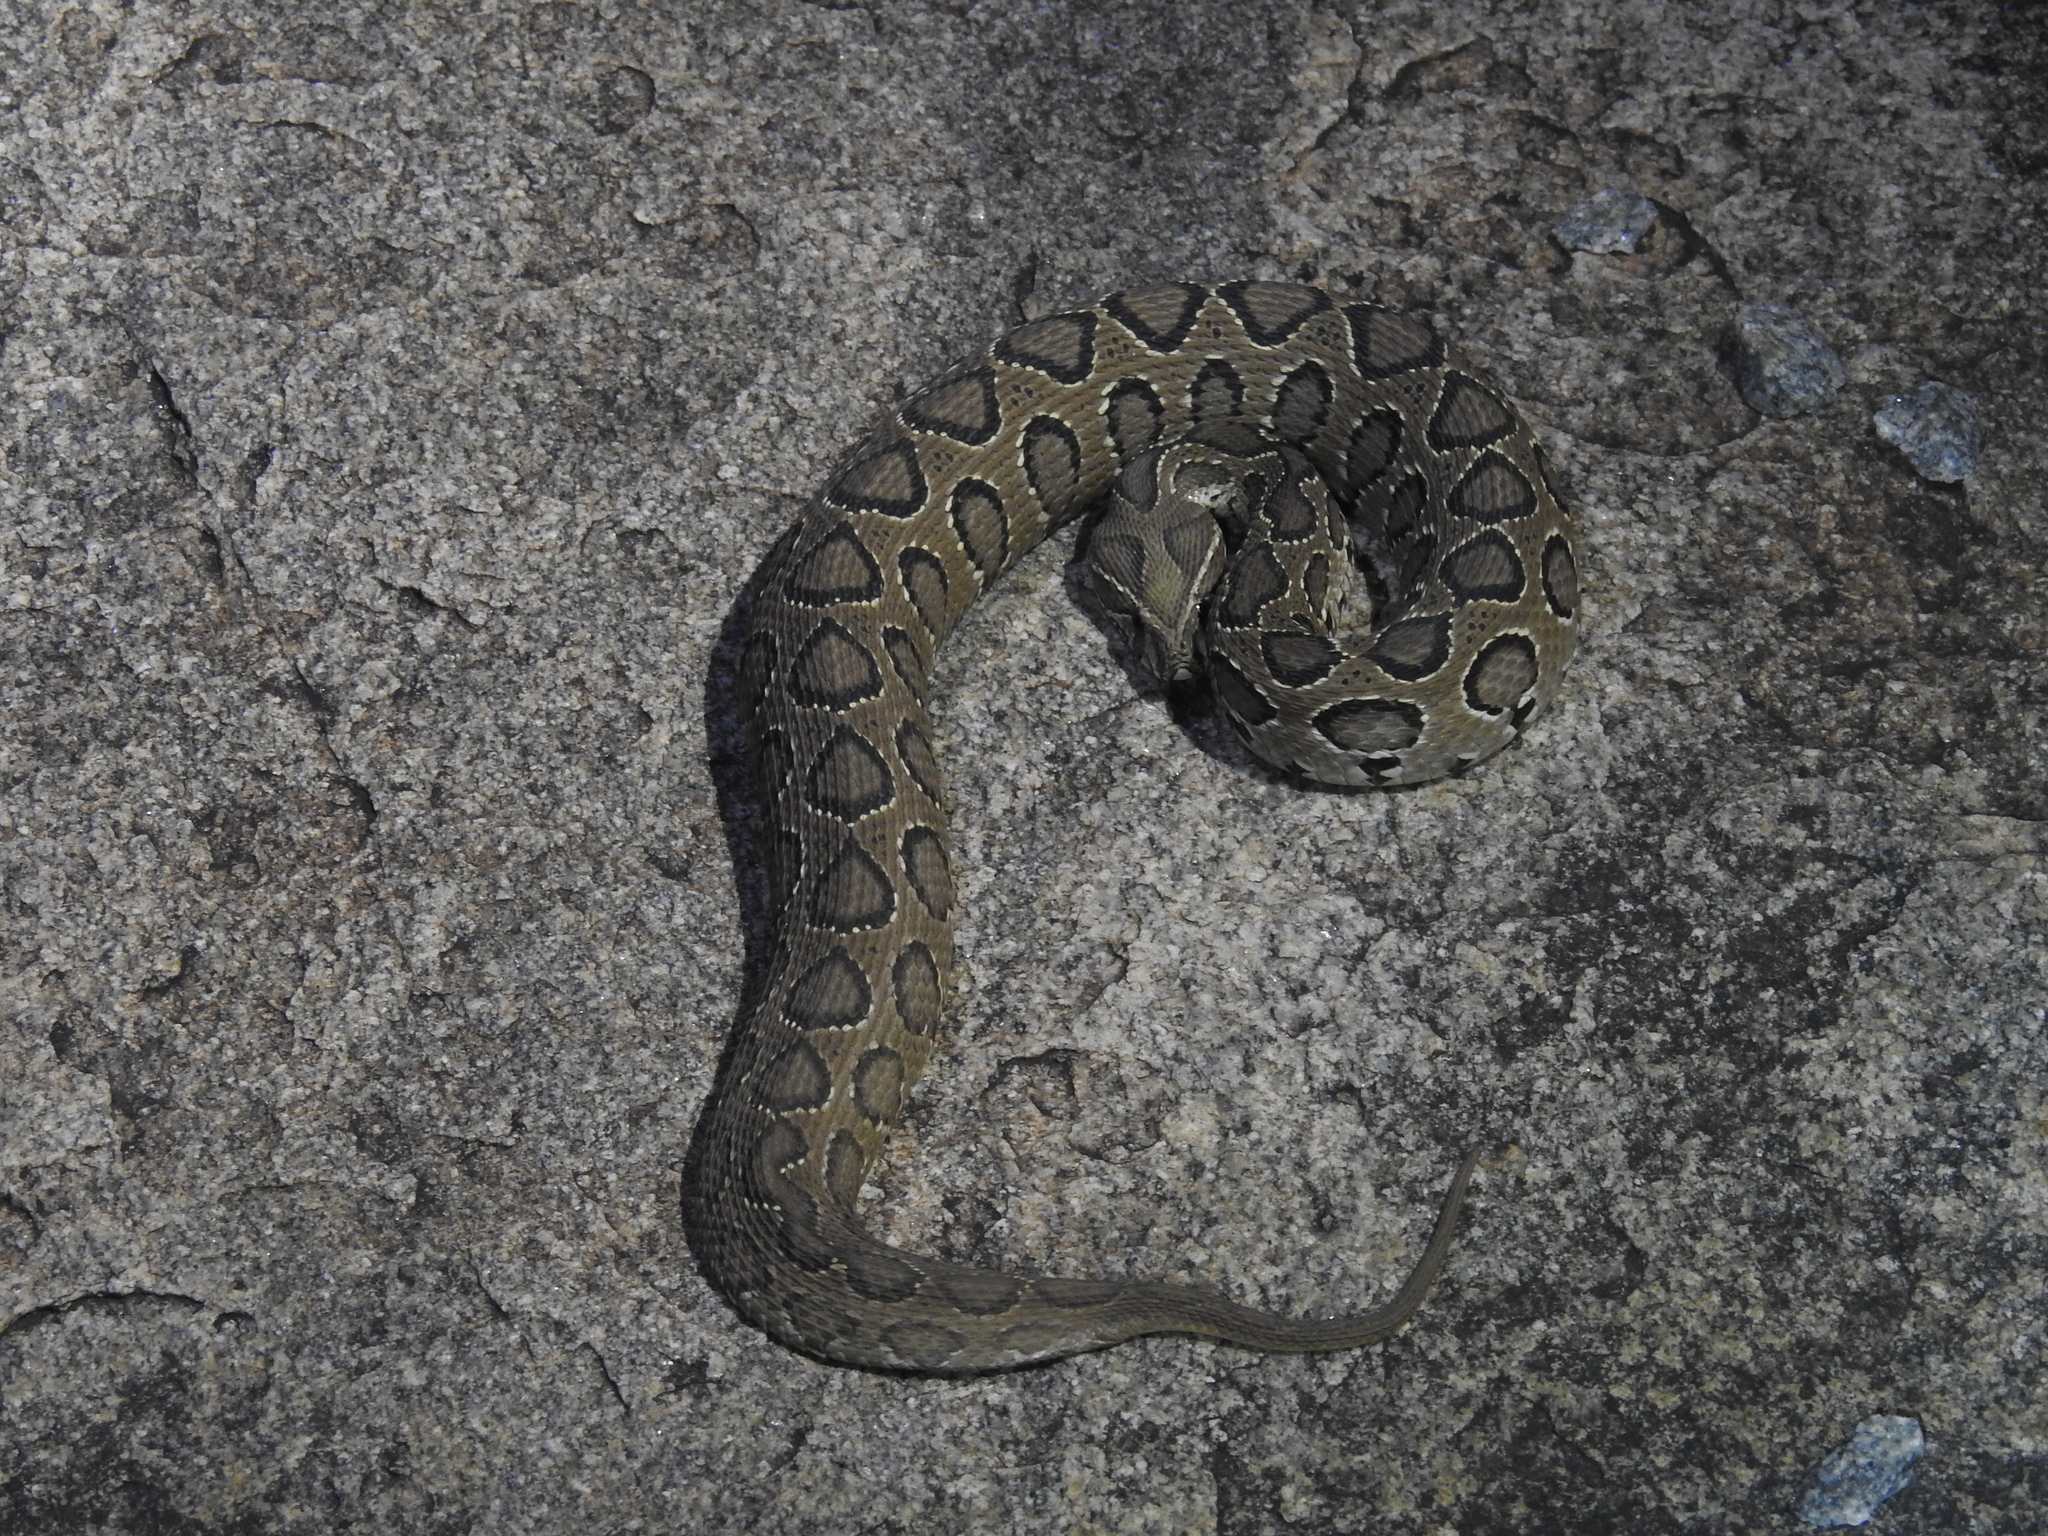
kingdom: Animalia
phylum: Chordata
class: Squamata
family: Viperidae
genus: Daboia
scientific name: Daboia russelii
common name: Western russel’s viper
